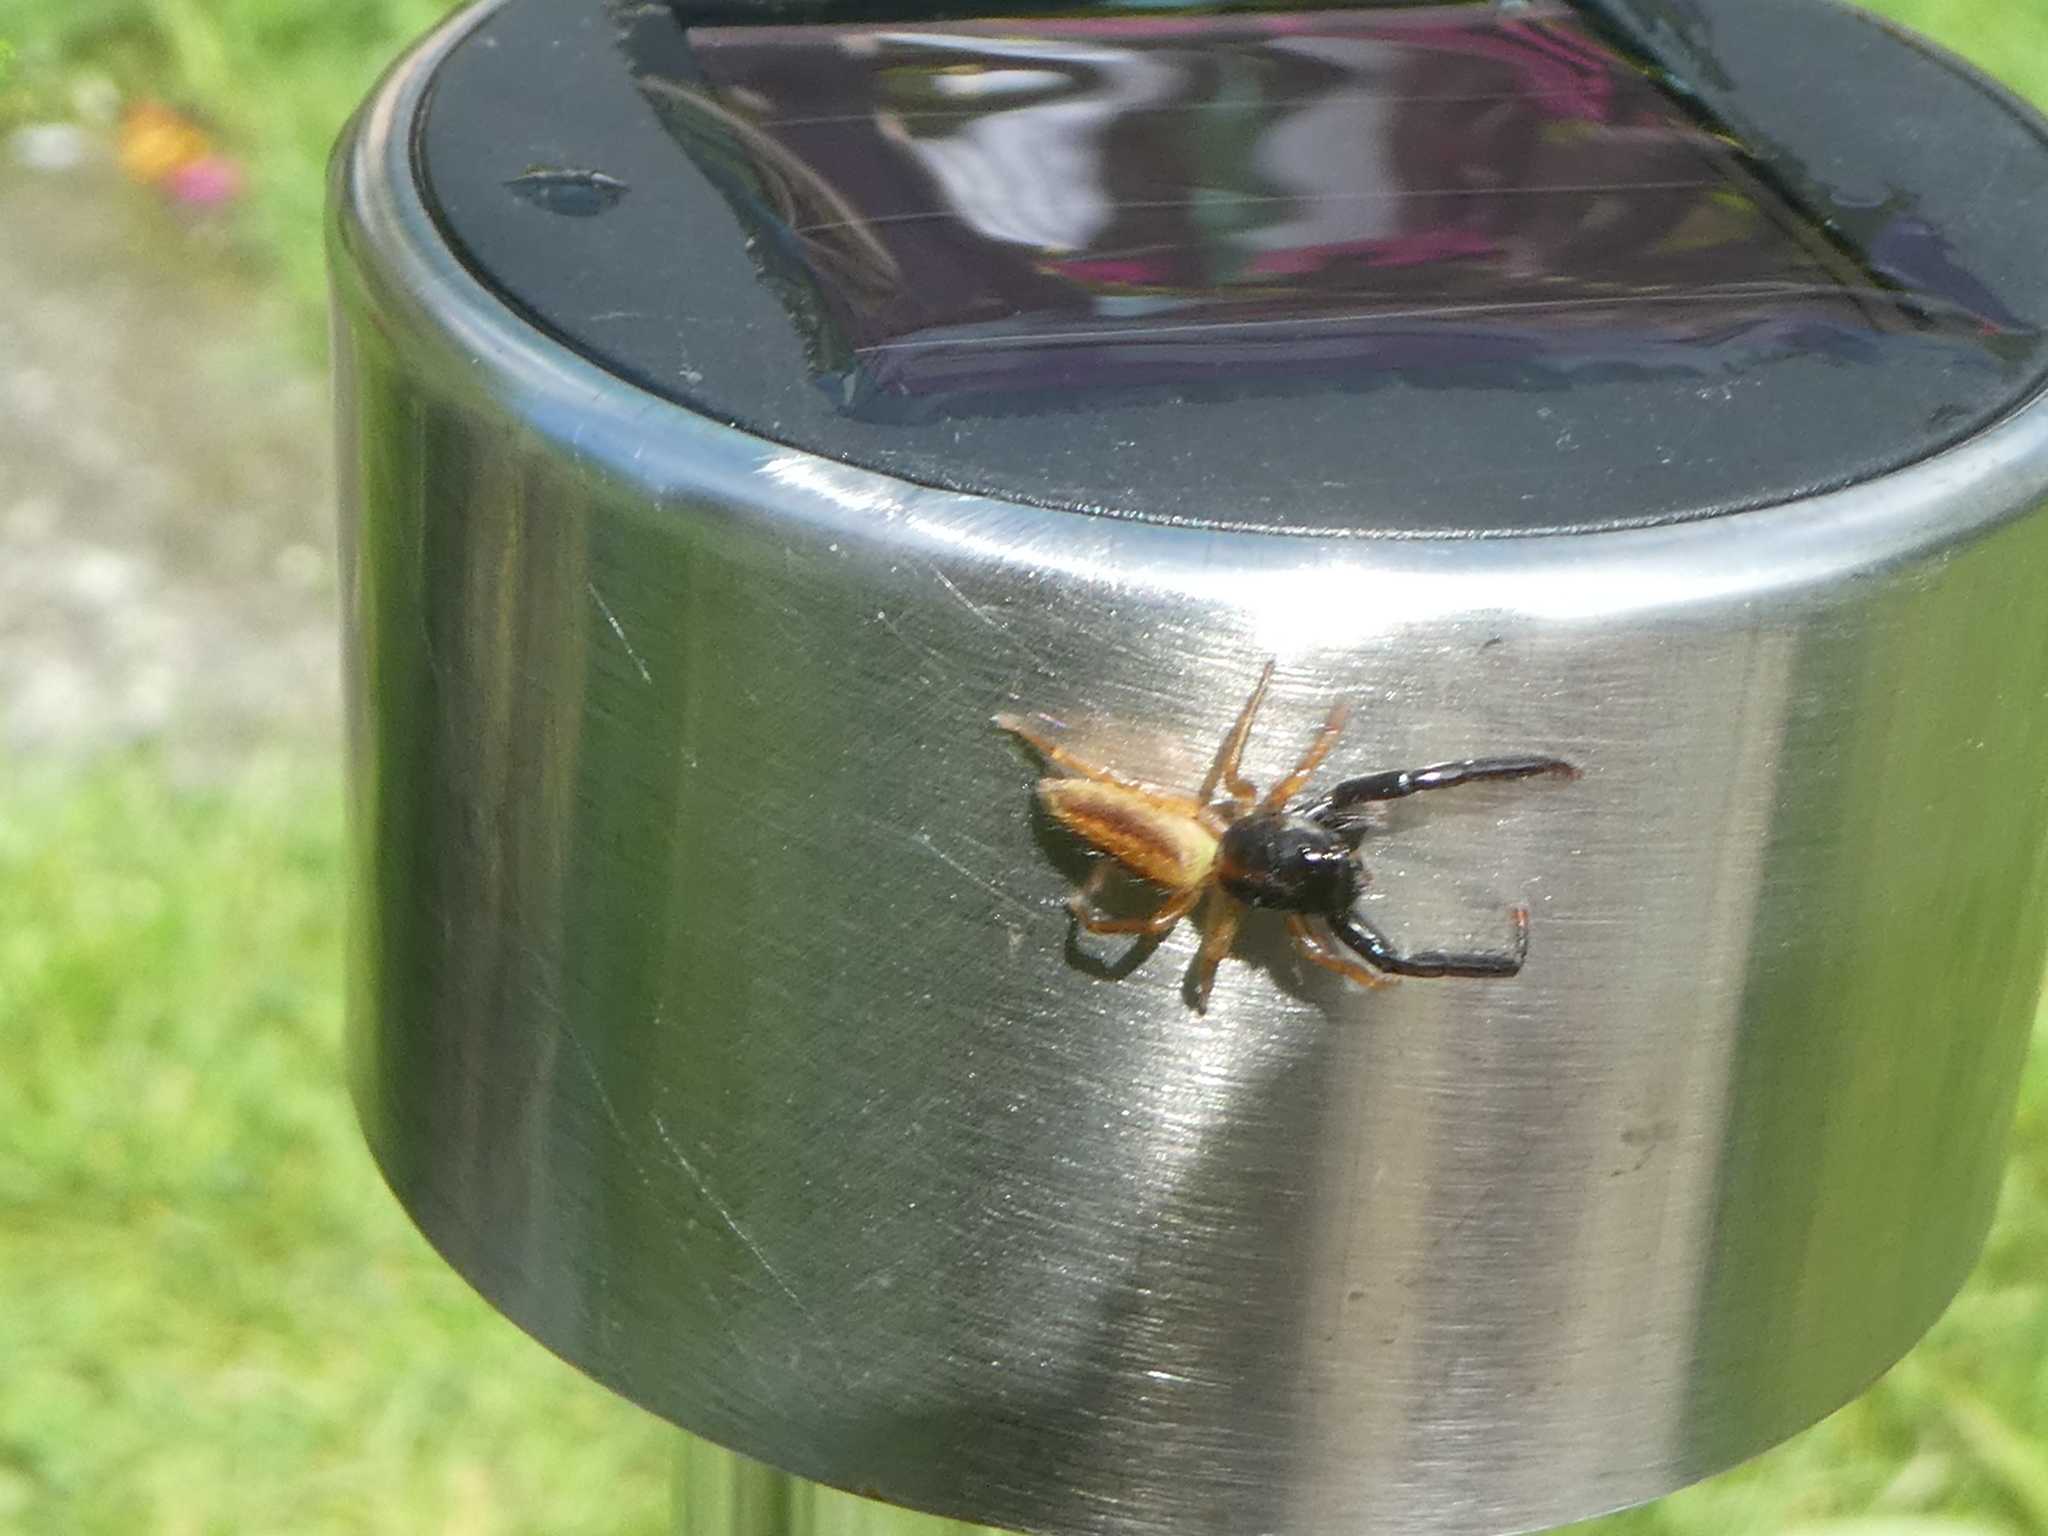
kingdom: Animalia
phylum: Arthropoda
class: Arachnida
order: Araneae
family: Salticidae
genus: Trite
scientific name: Trite planiceps
